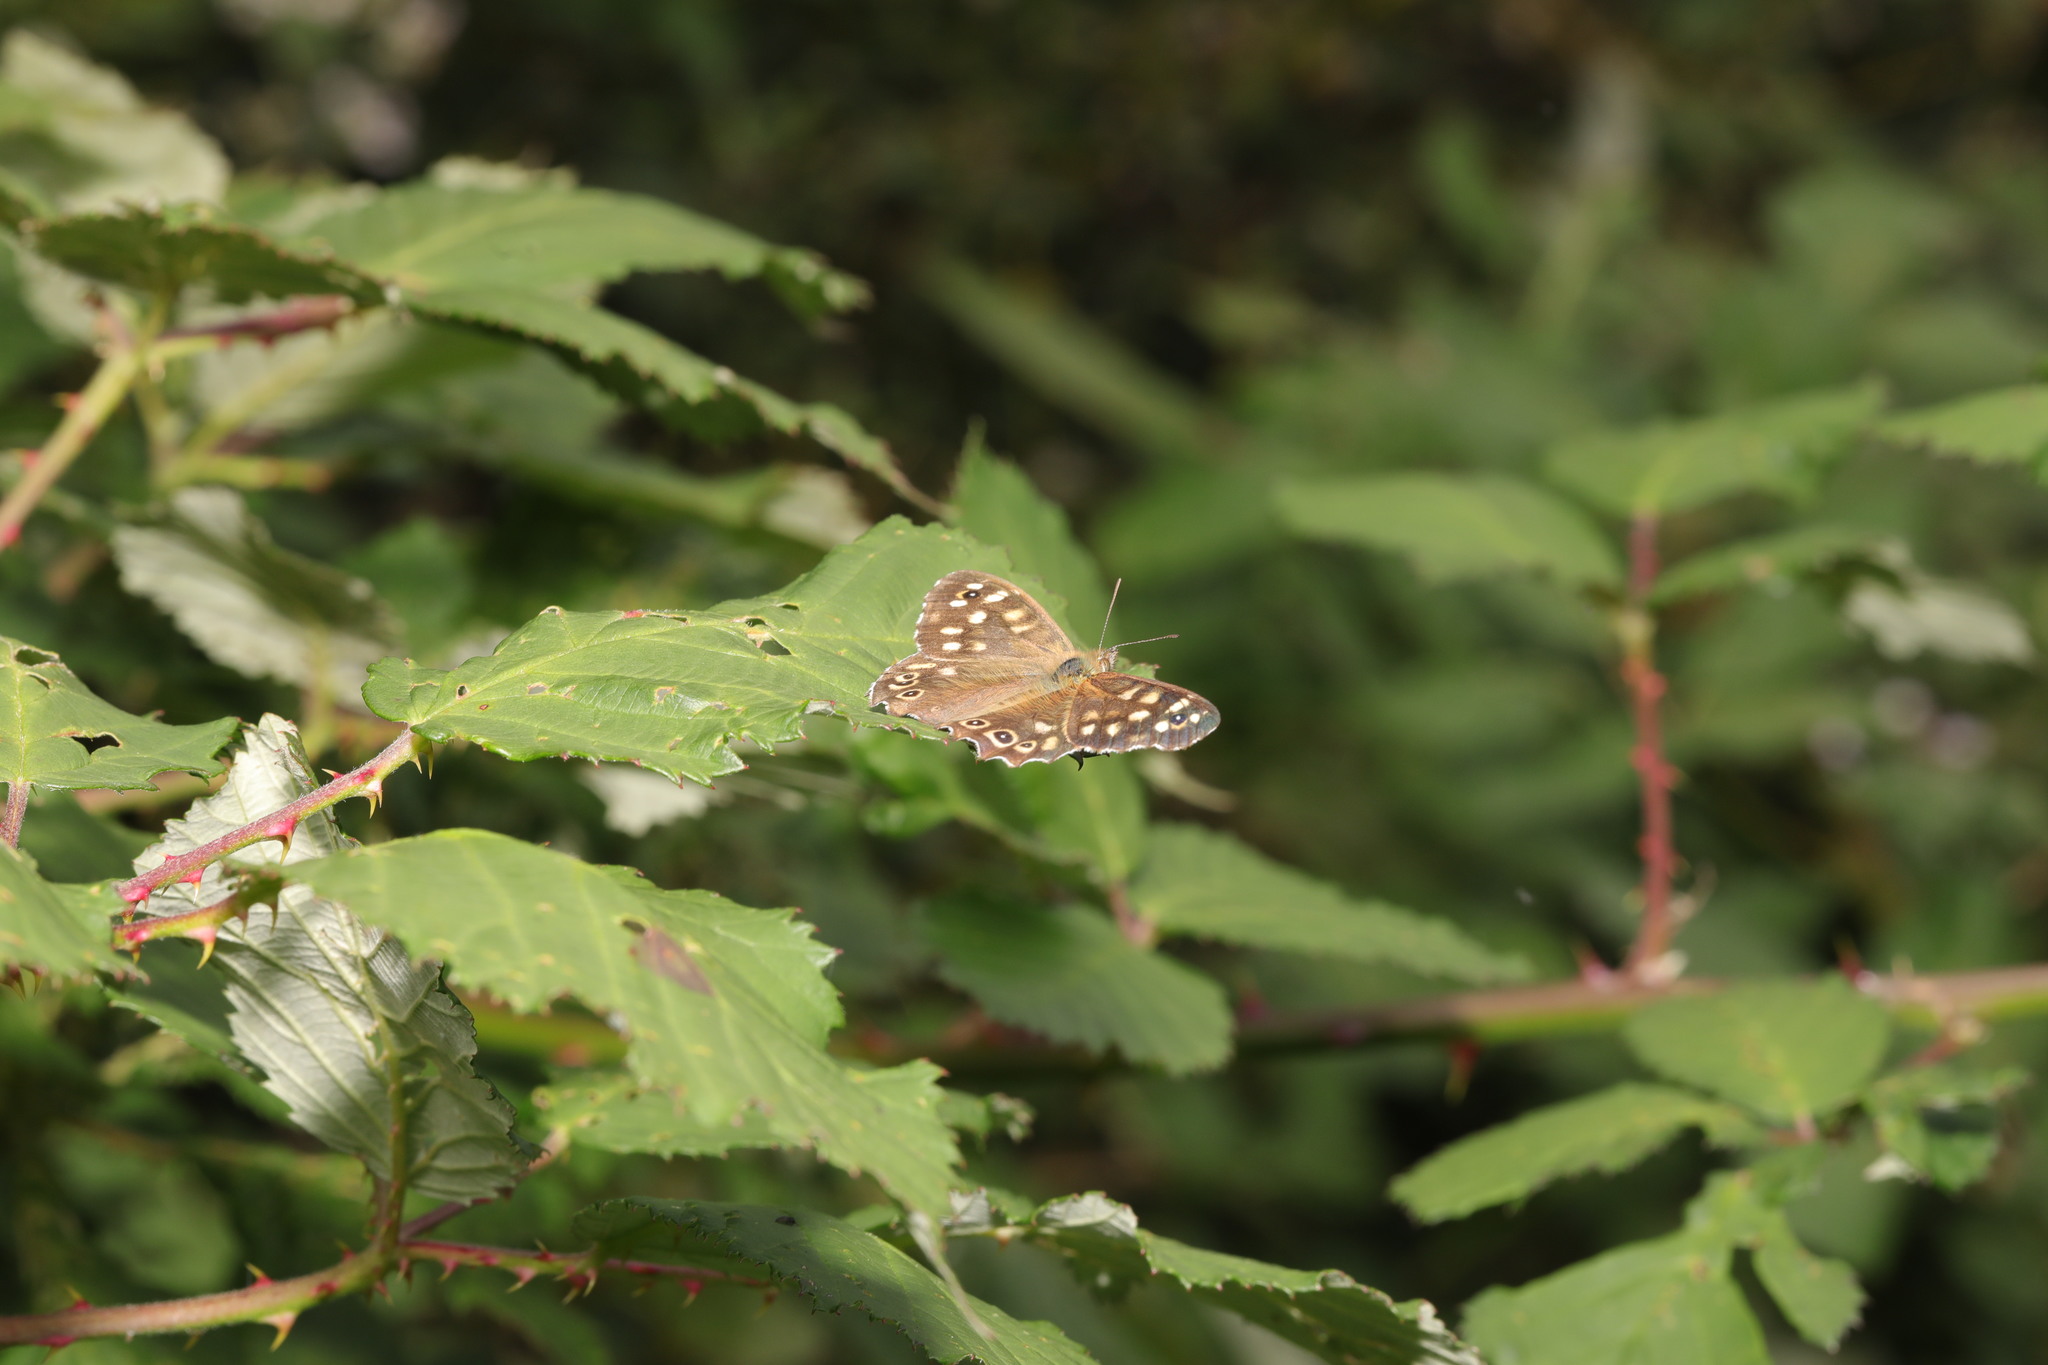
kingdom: Animalia
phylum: Arthropoda
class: Insecta
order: Lepidoptera
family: Nymphalidae
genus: Pararge
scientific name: Pararge aegeria
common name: Speckled wood
